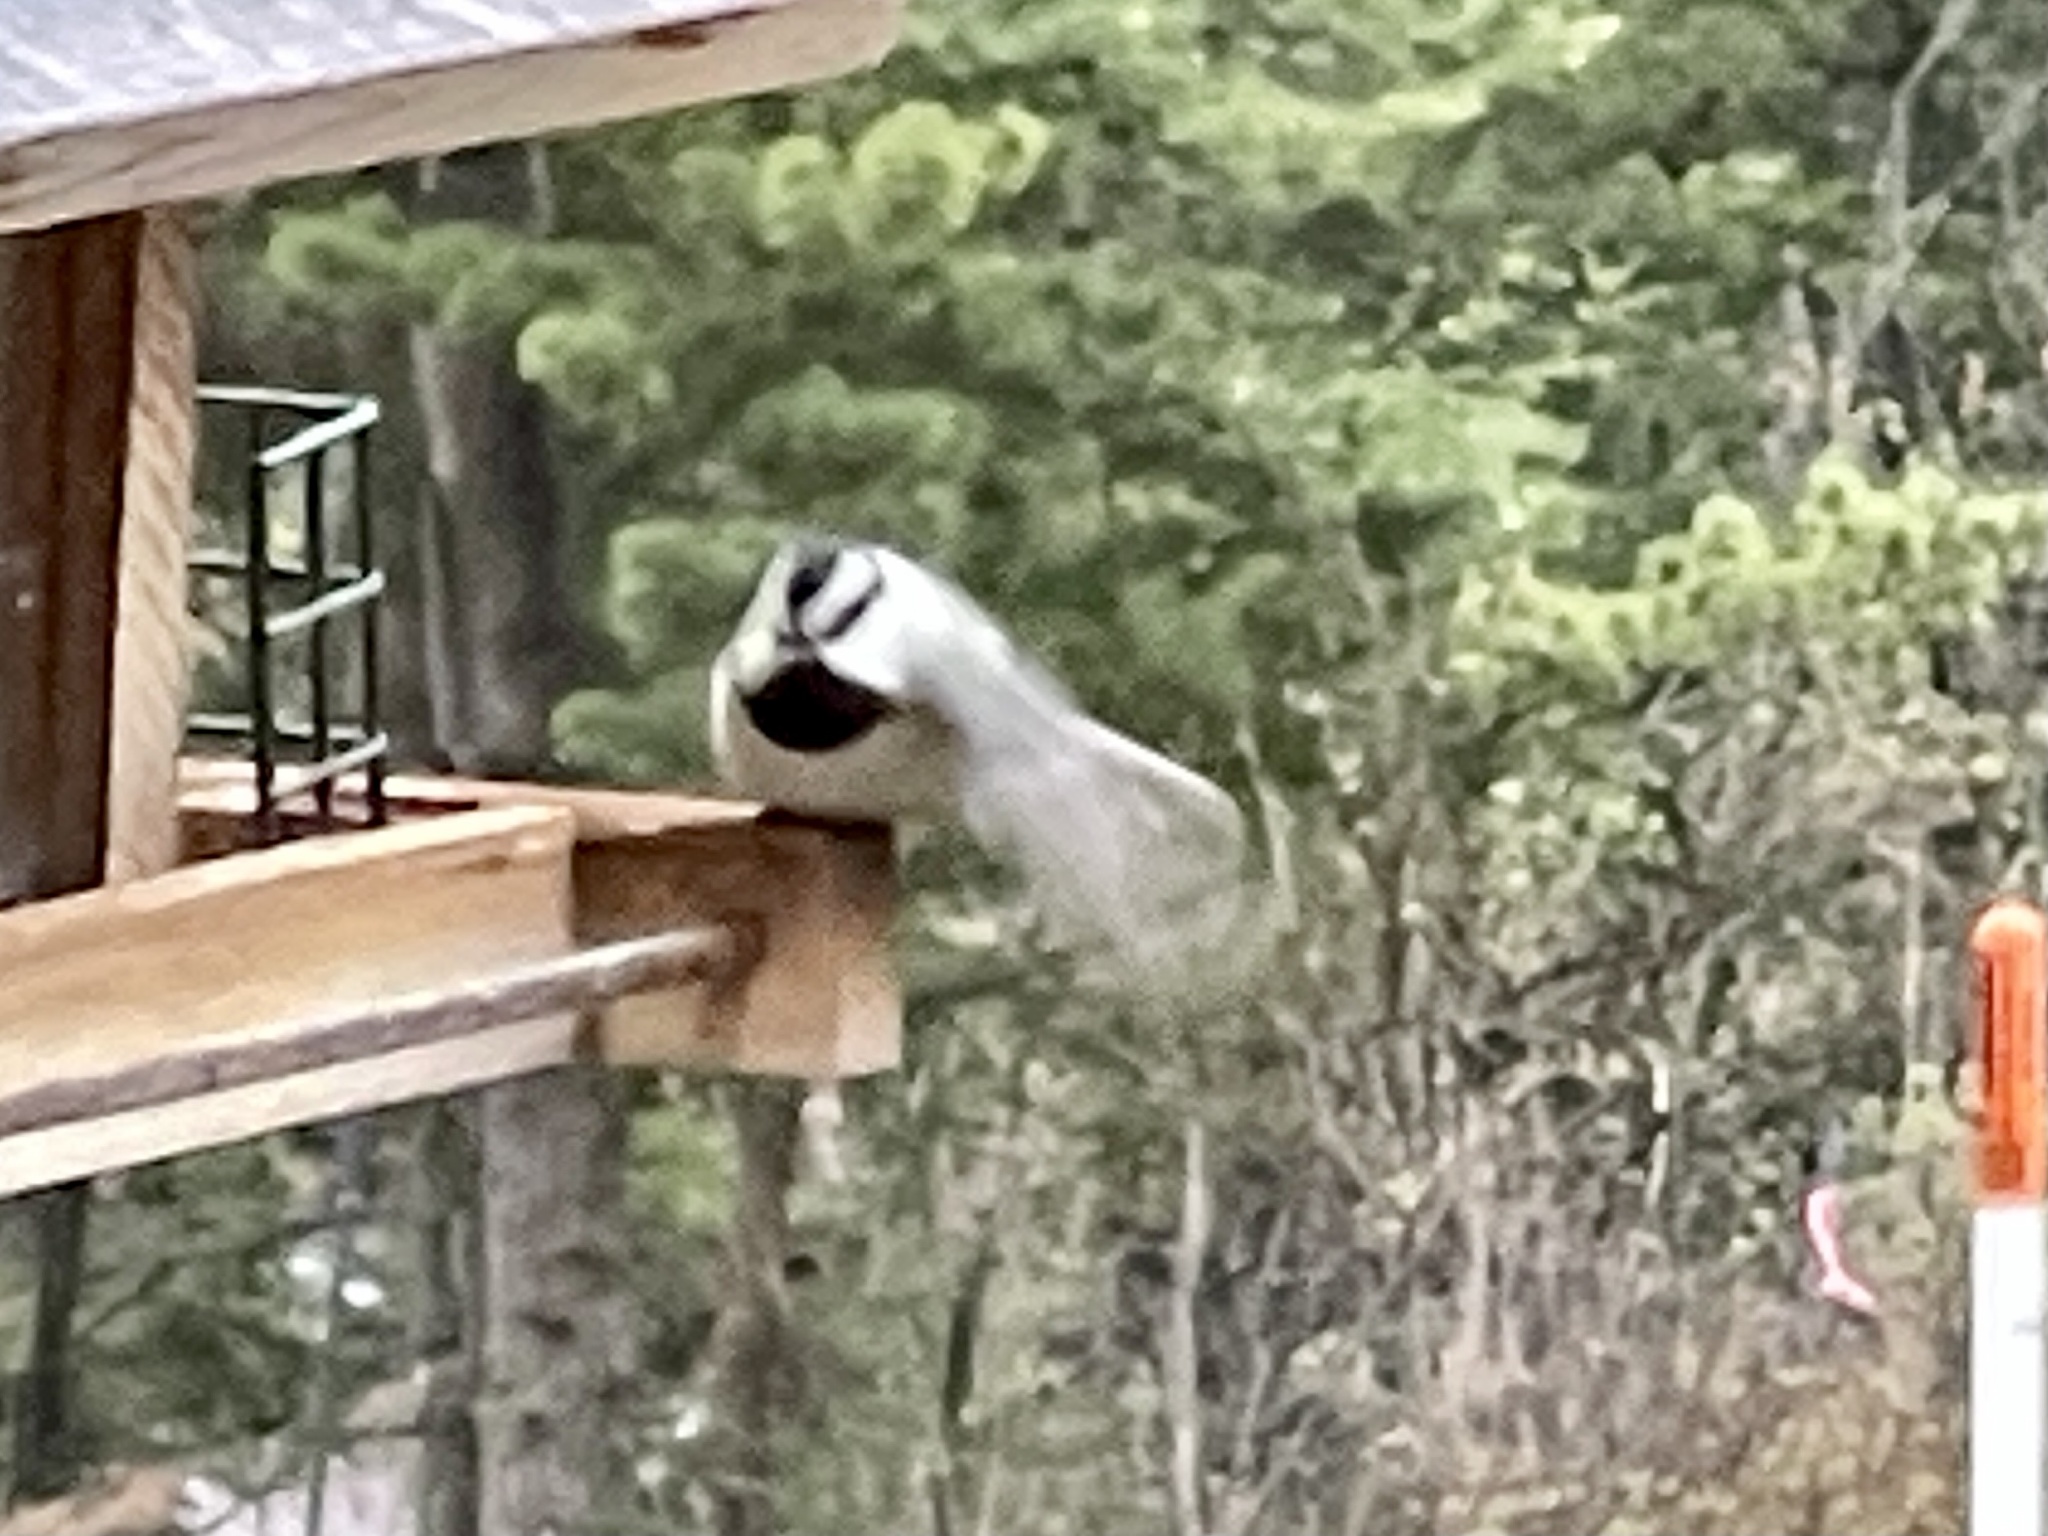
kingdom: Animalia
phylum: Chordata
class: Aves
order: Passeriformes
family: Paridae
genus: Poecile
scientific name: Poecile gambeli
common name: Mountain chickadee
